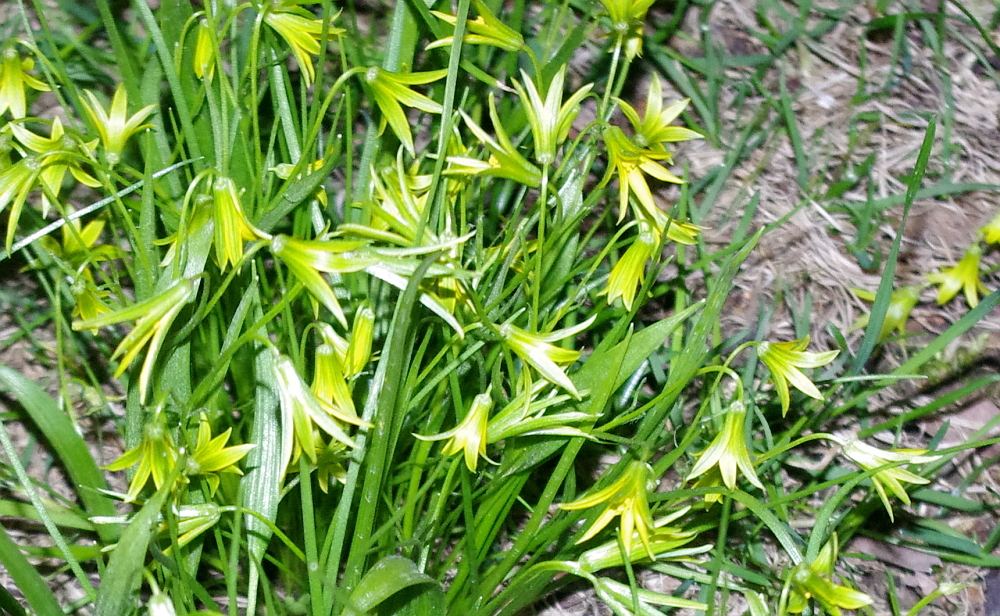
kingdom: Plantae
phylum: Tracheophyta
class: Liliopsida
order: Liliales
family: Liliaceae
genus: Gagea
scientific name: Gagea minima
